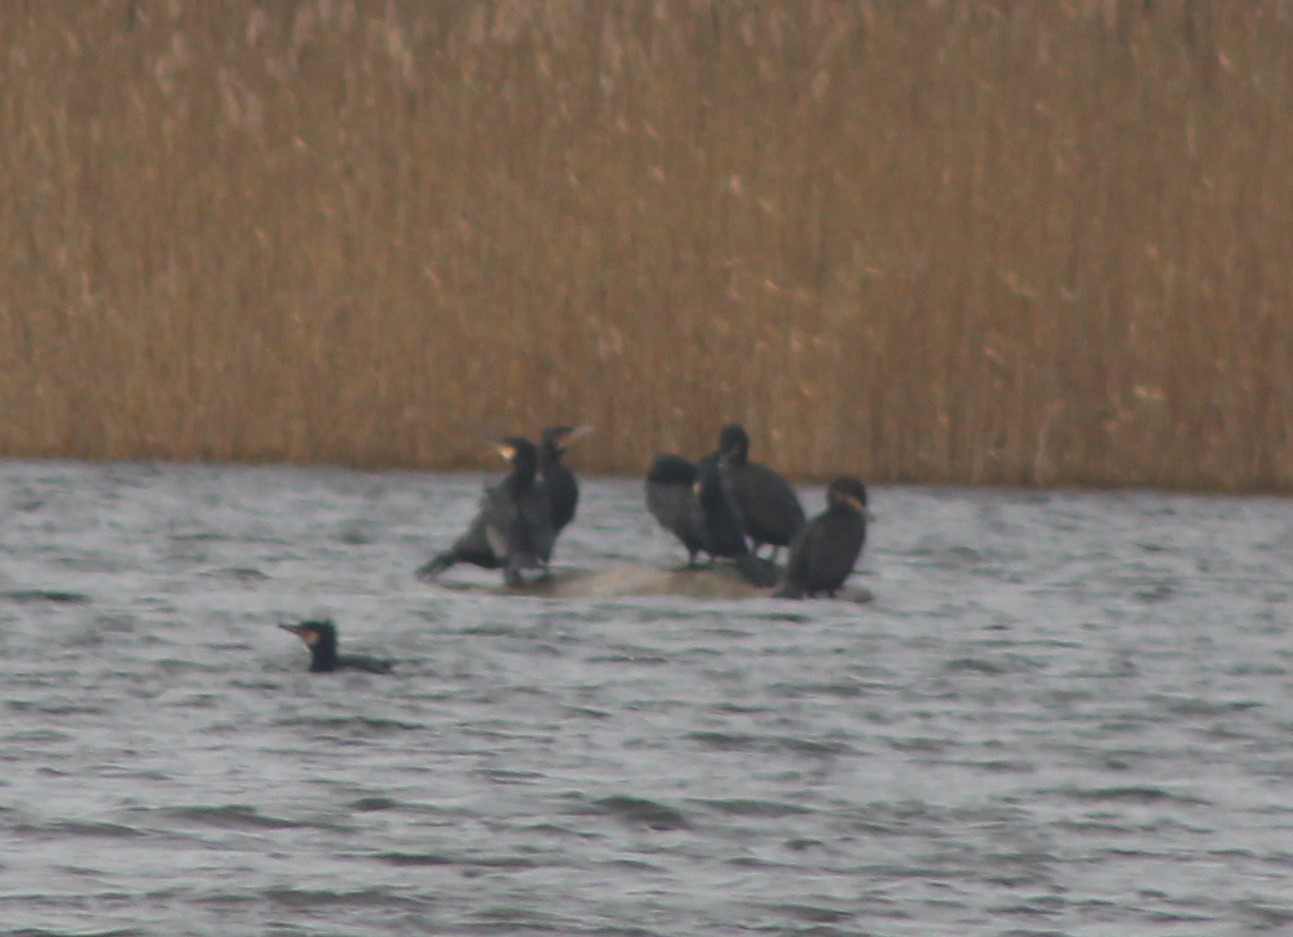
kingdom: Animalia
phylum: Chordata
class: Aves
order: Suliformes
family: Phalacrocoracidae
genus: Phalacrocorax
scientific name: Phalacrocorax carbo
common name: Great cormorant
